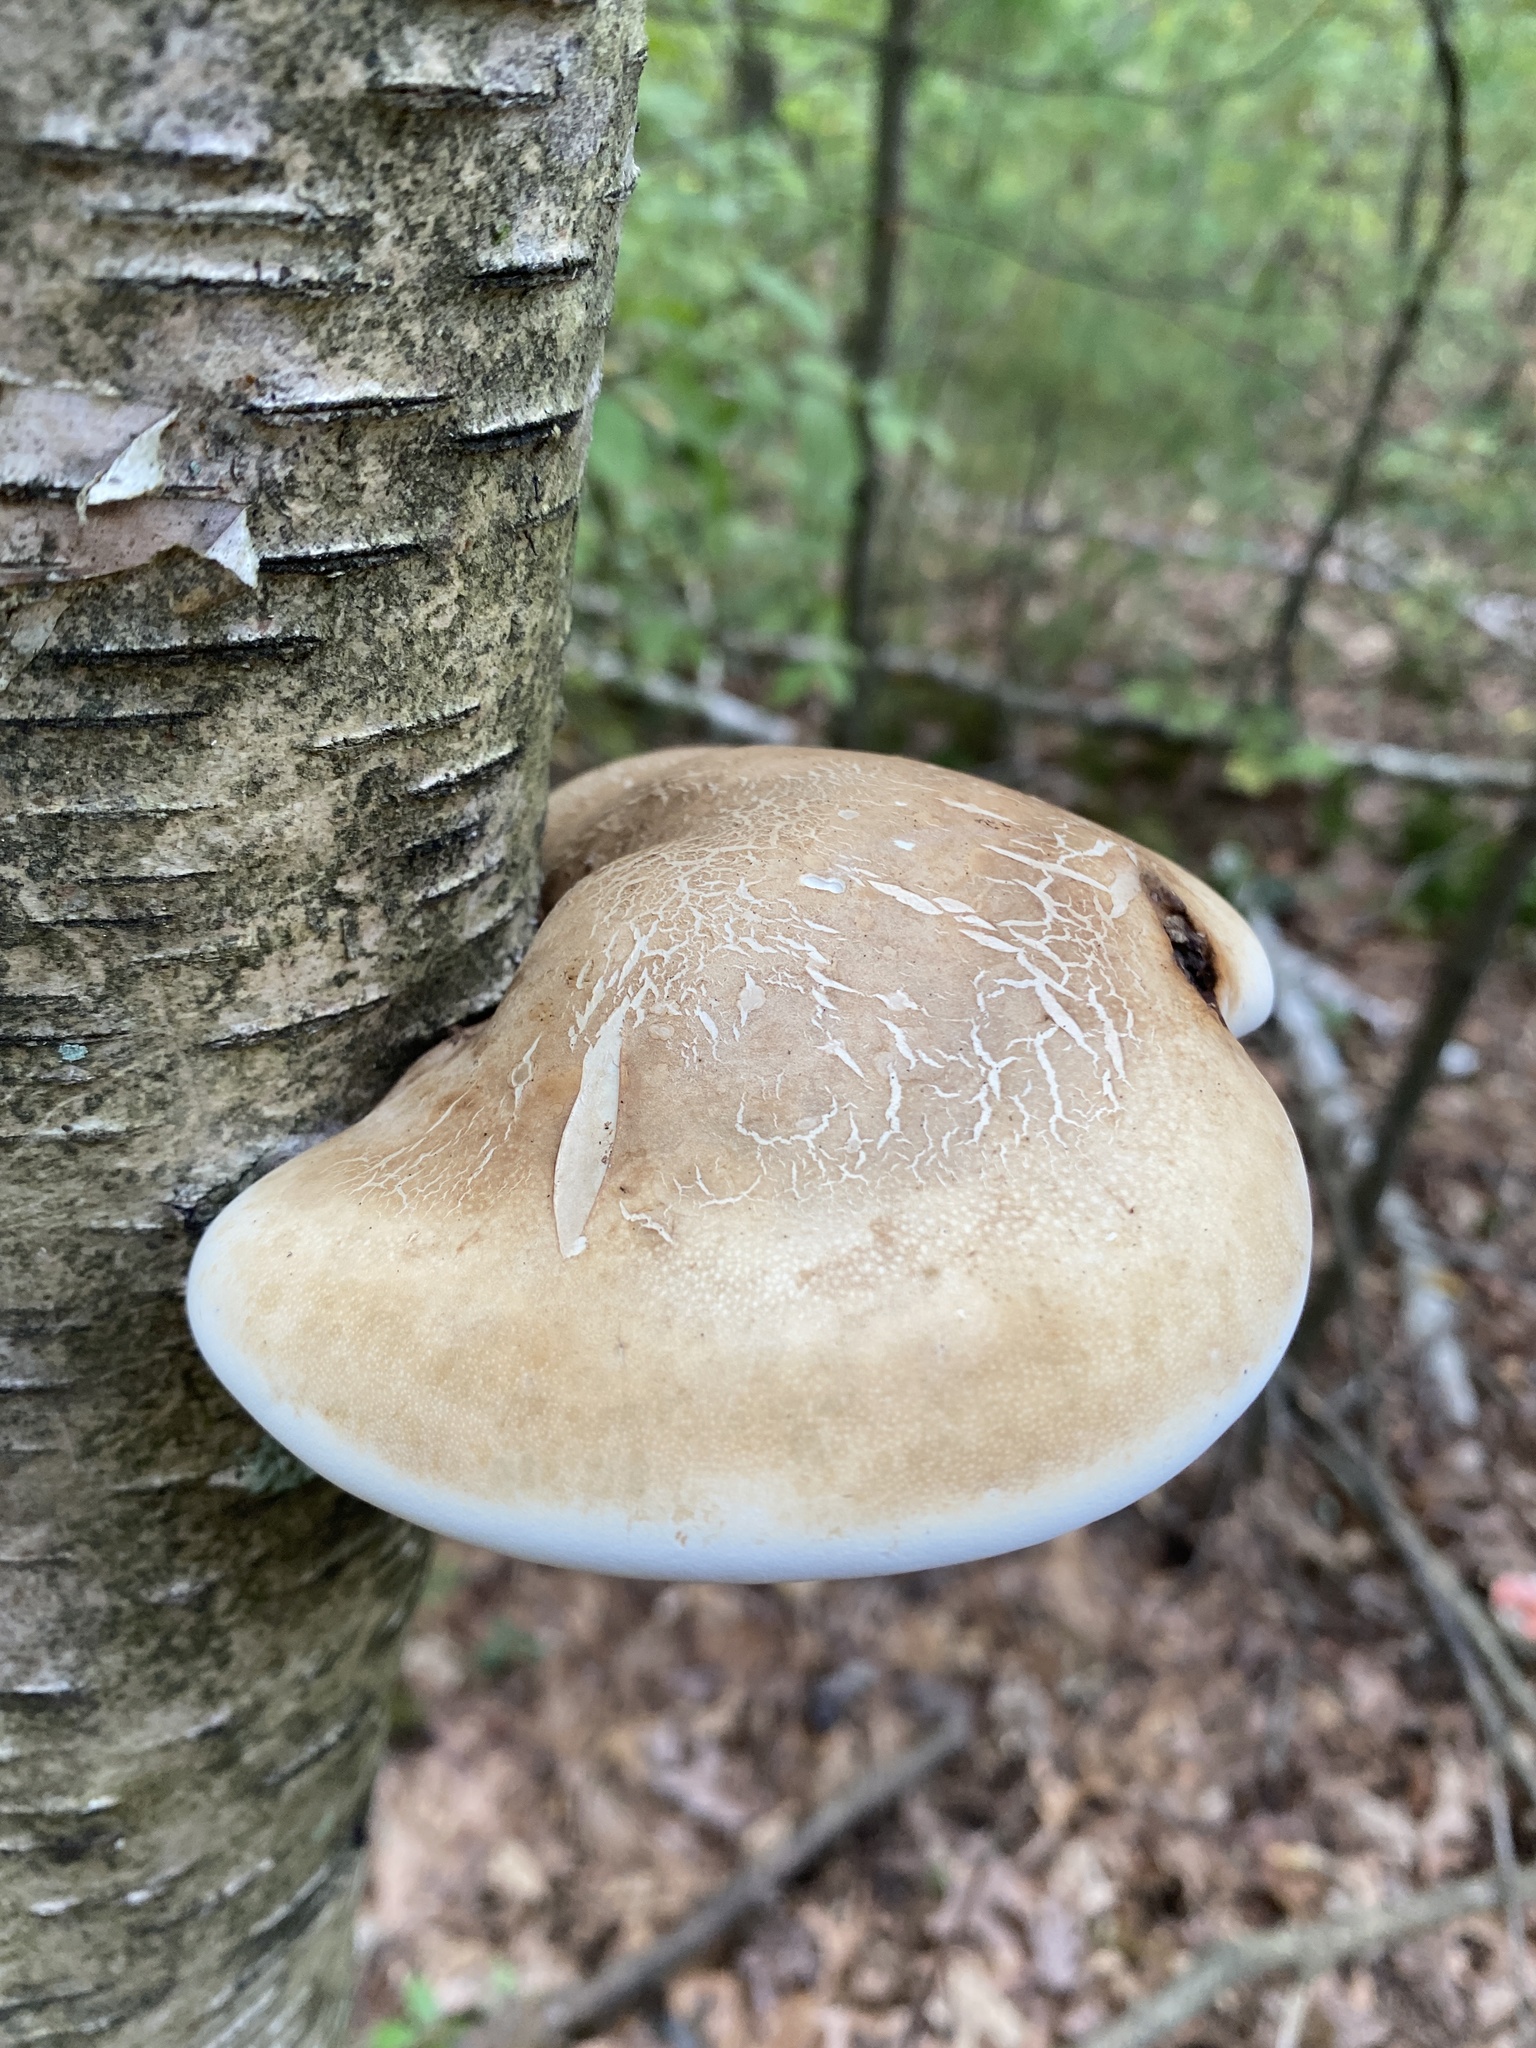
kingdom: Fungi
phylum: Basidiomycota
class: Agaricomycetes
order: Polyporales
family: Fomitopsidaceae
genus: Fomitopsis
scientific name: Fomitopsis betulina
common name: Birch polypore
